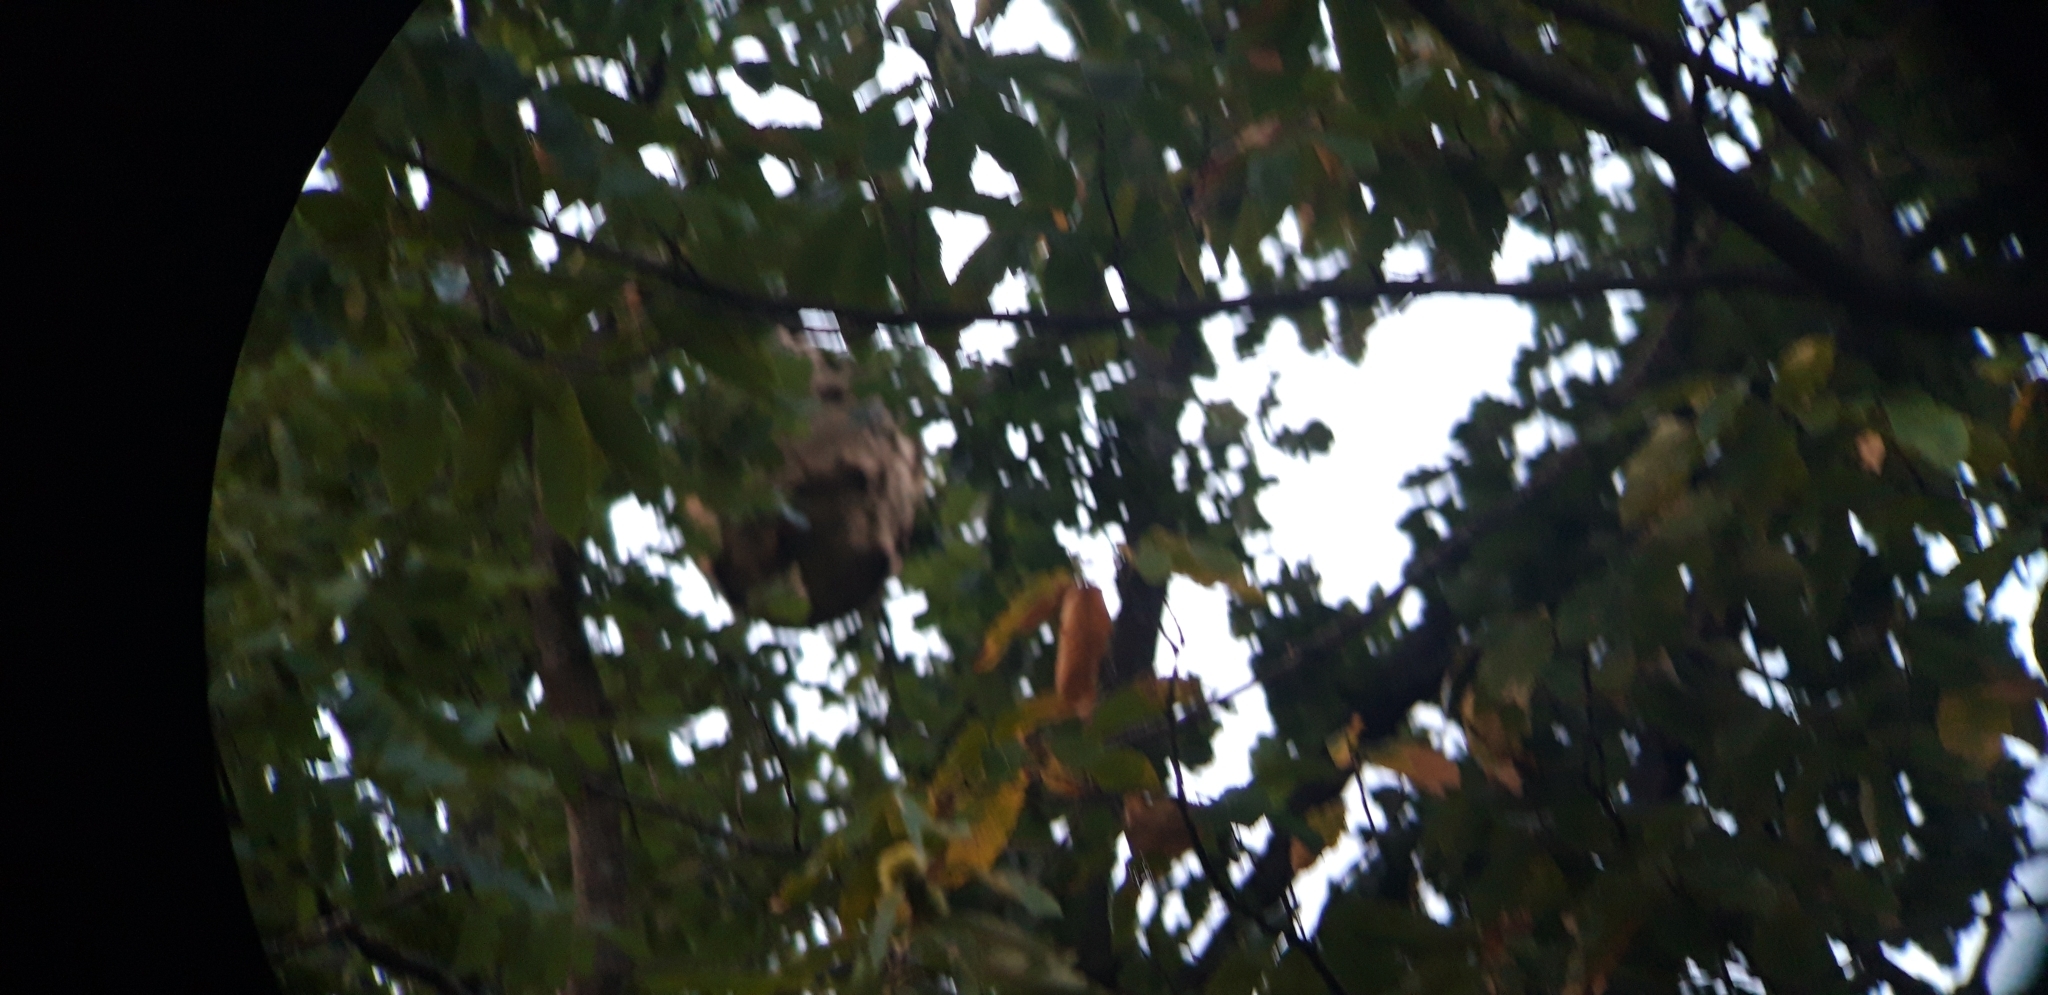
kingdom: Animalia
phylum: Arthropoda
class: Insecta
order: Hymenoptera
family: Vespidae
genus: Vespa
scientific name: Vespa velutina
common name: Asian hornet
